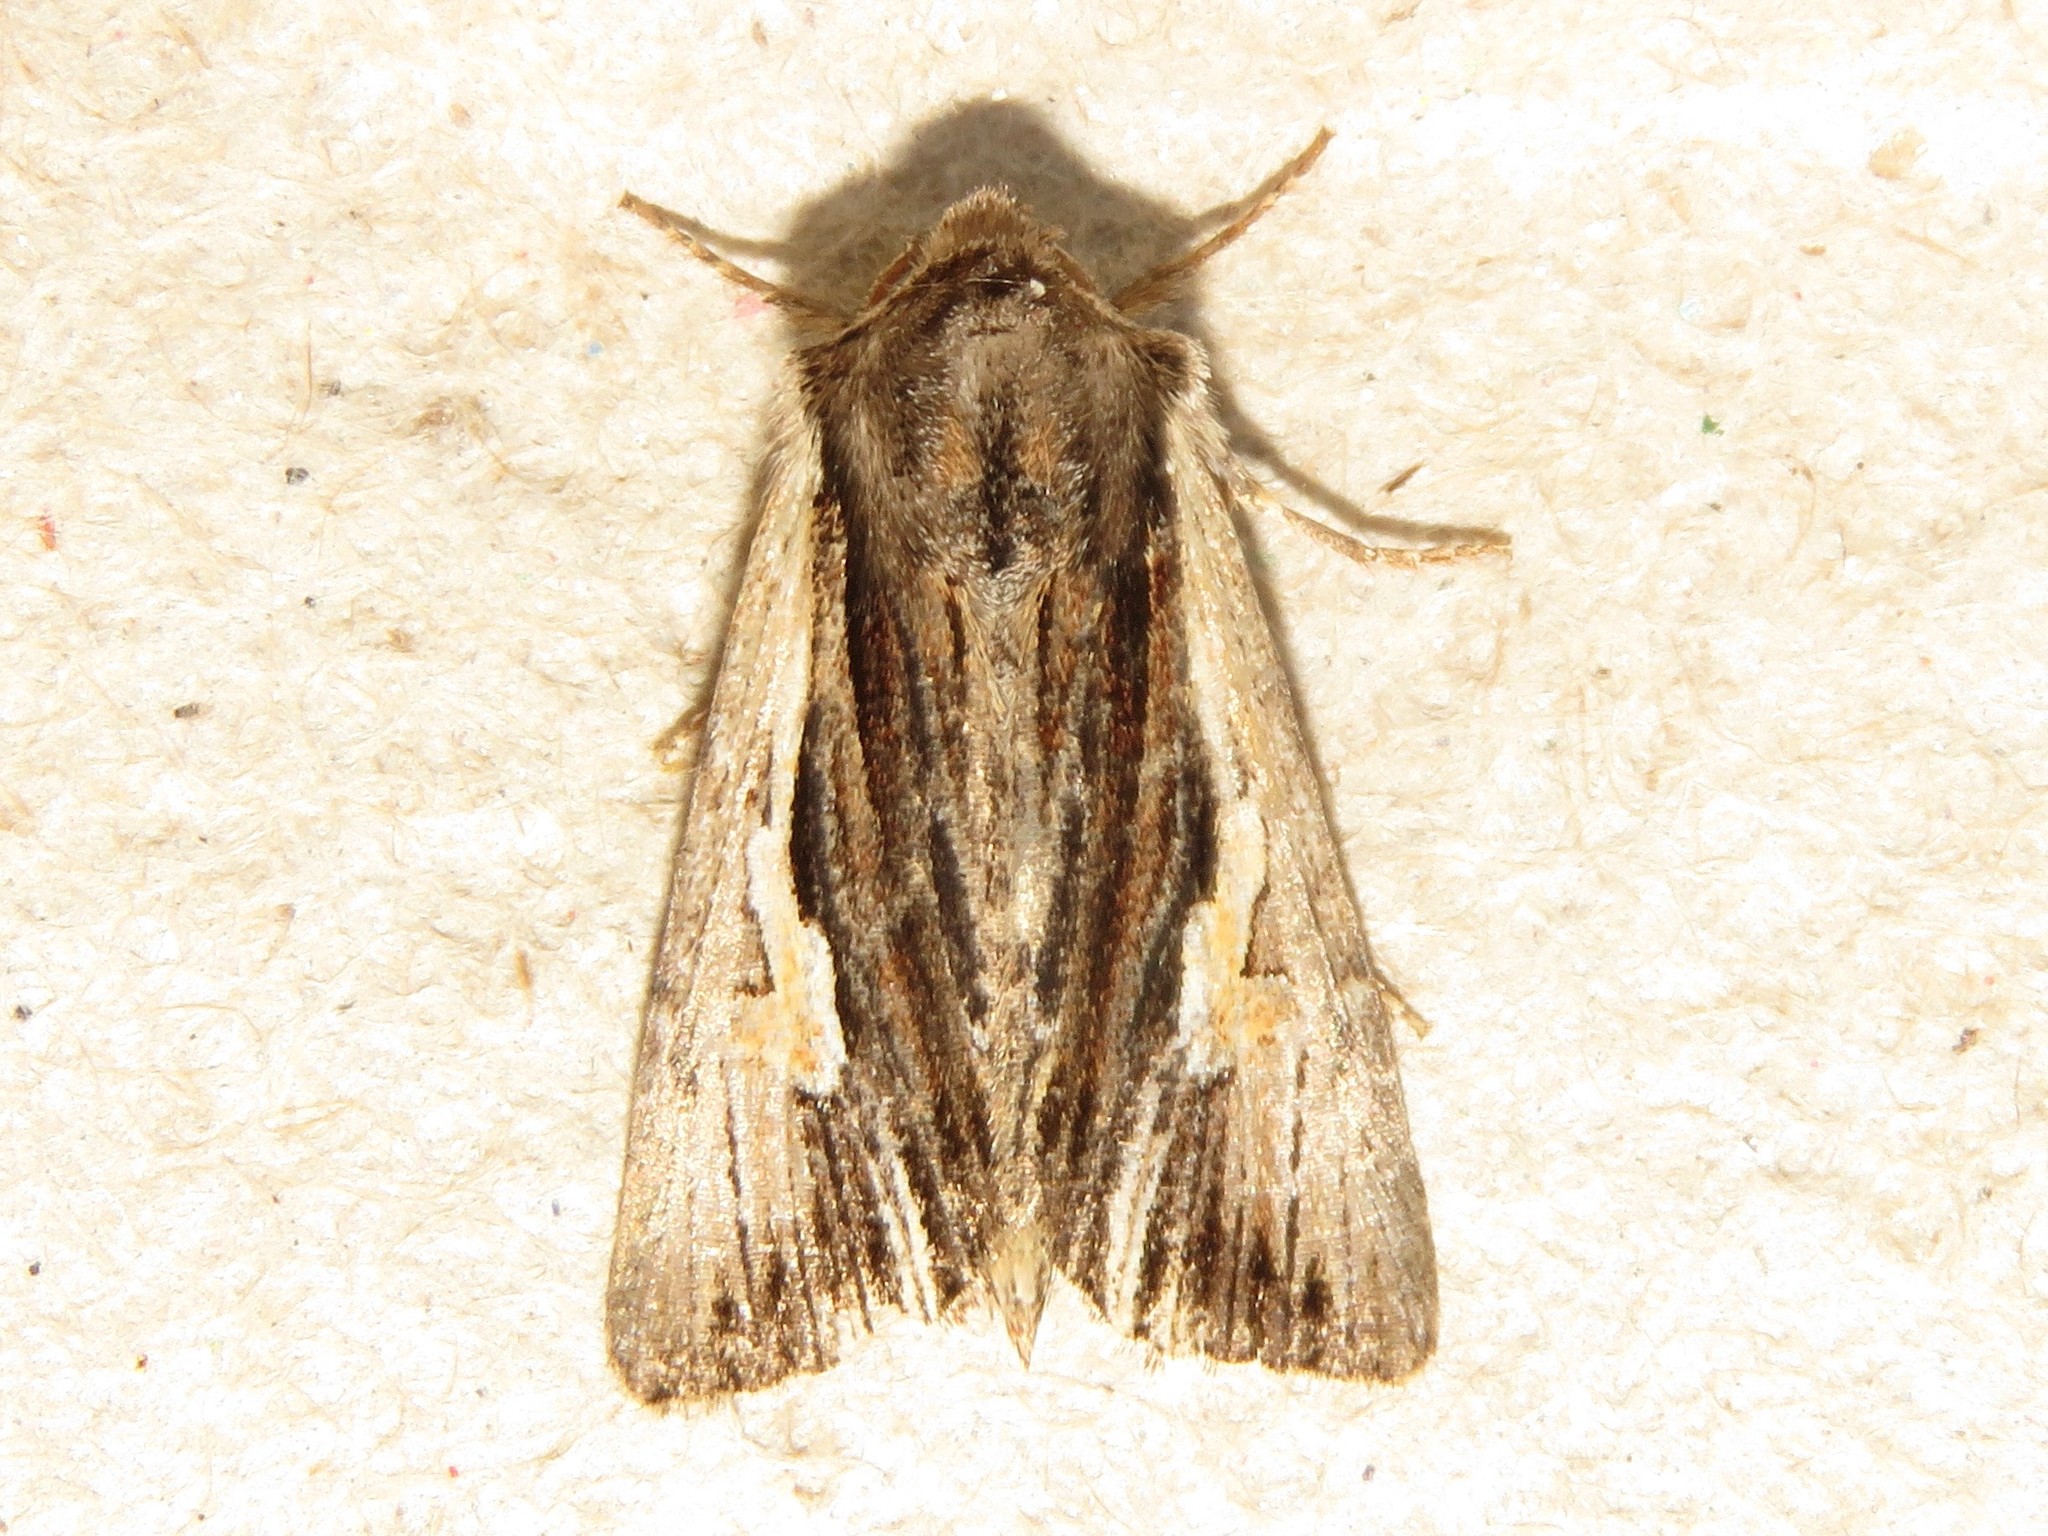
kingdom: Animalia
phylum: Arthropoda
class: Insecta
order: Lepidoptera
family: Noctuidae
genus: Achatia
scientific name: Achatia evicta
